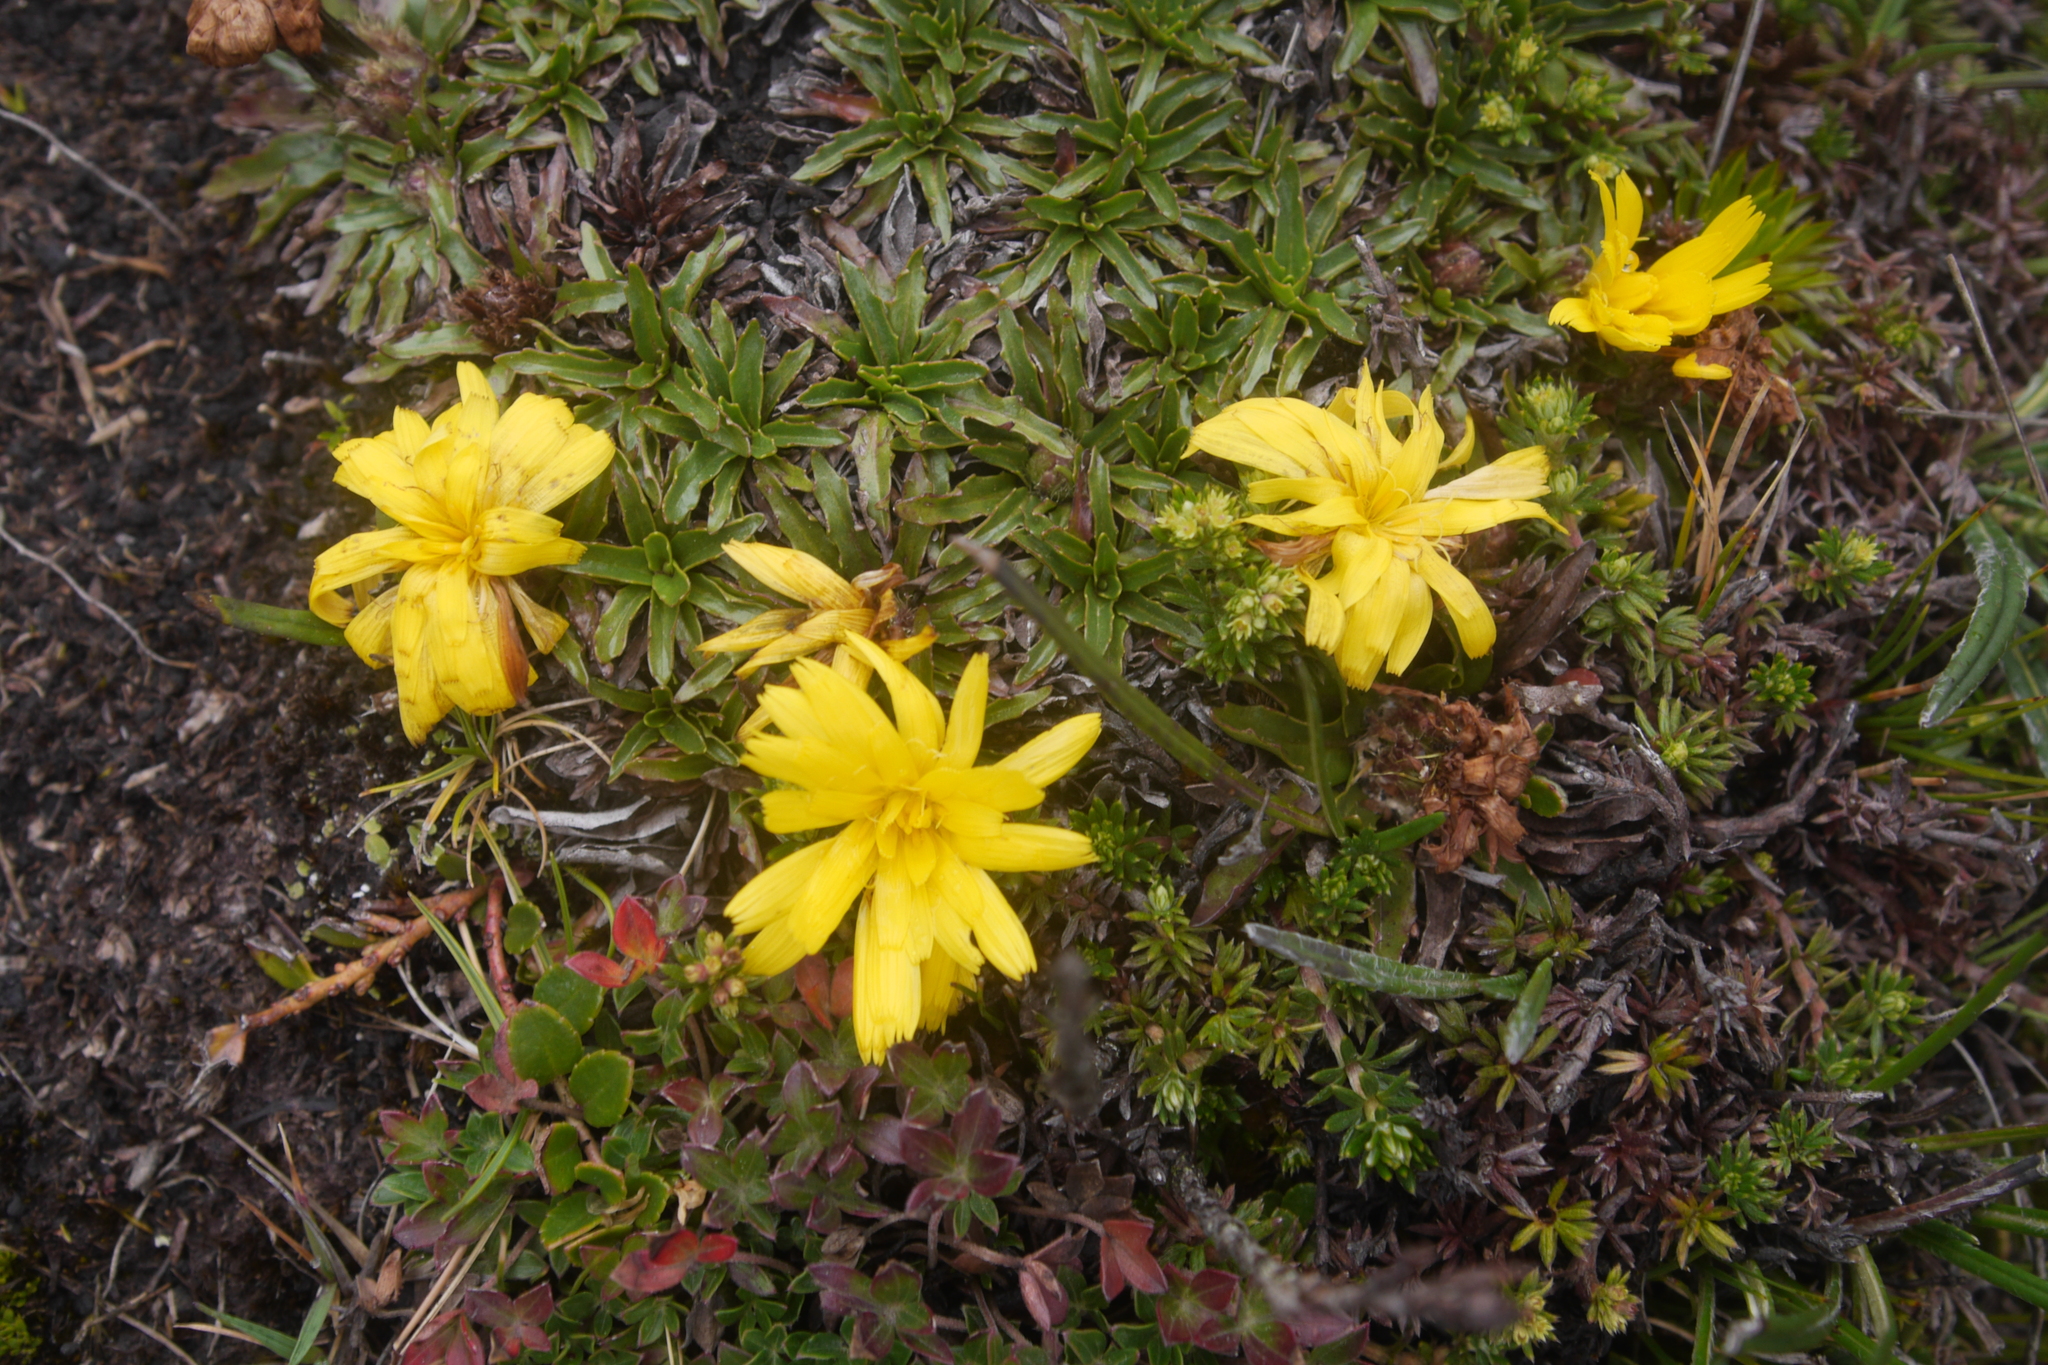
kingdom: Plantae
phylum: Tracheophyta
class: Magnoliopsida
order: Asterales
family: Asteraceae
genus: Hypochaeris
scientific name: Hypochaeris sessiliflora
